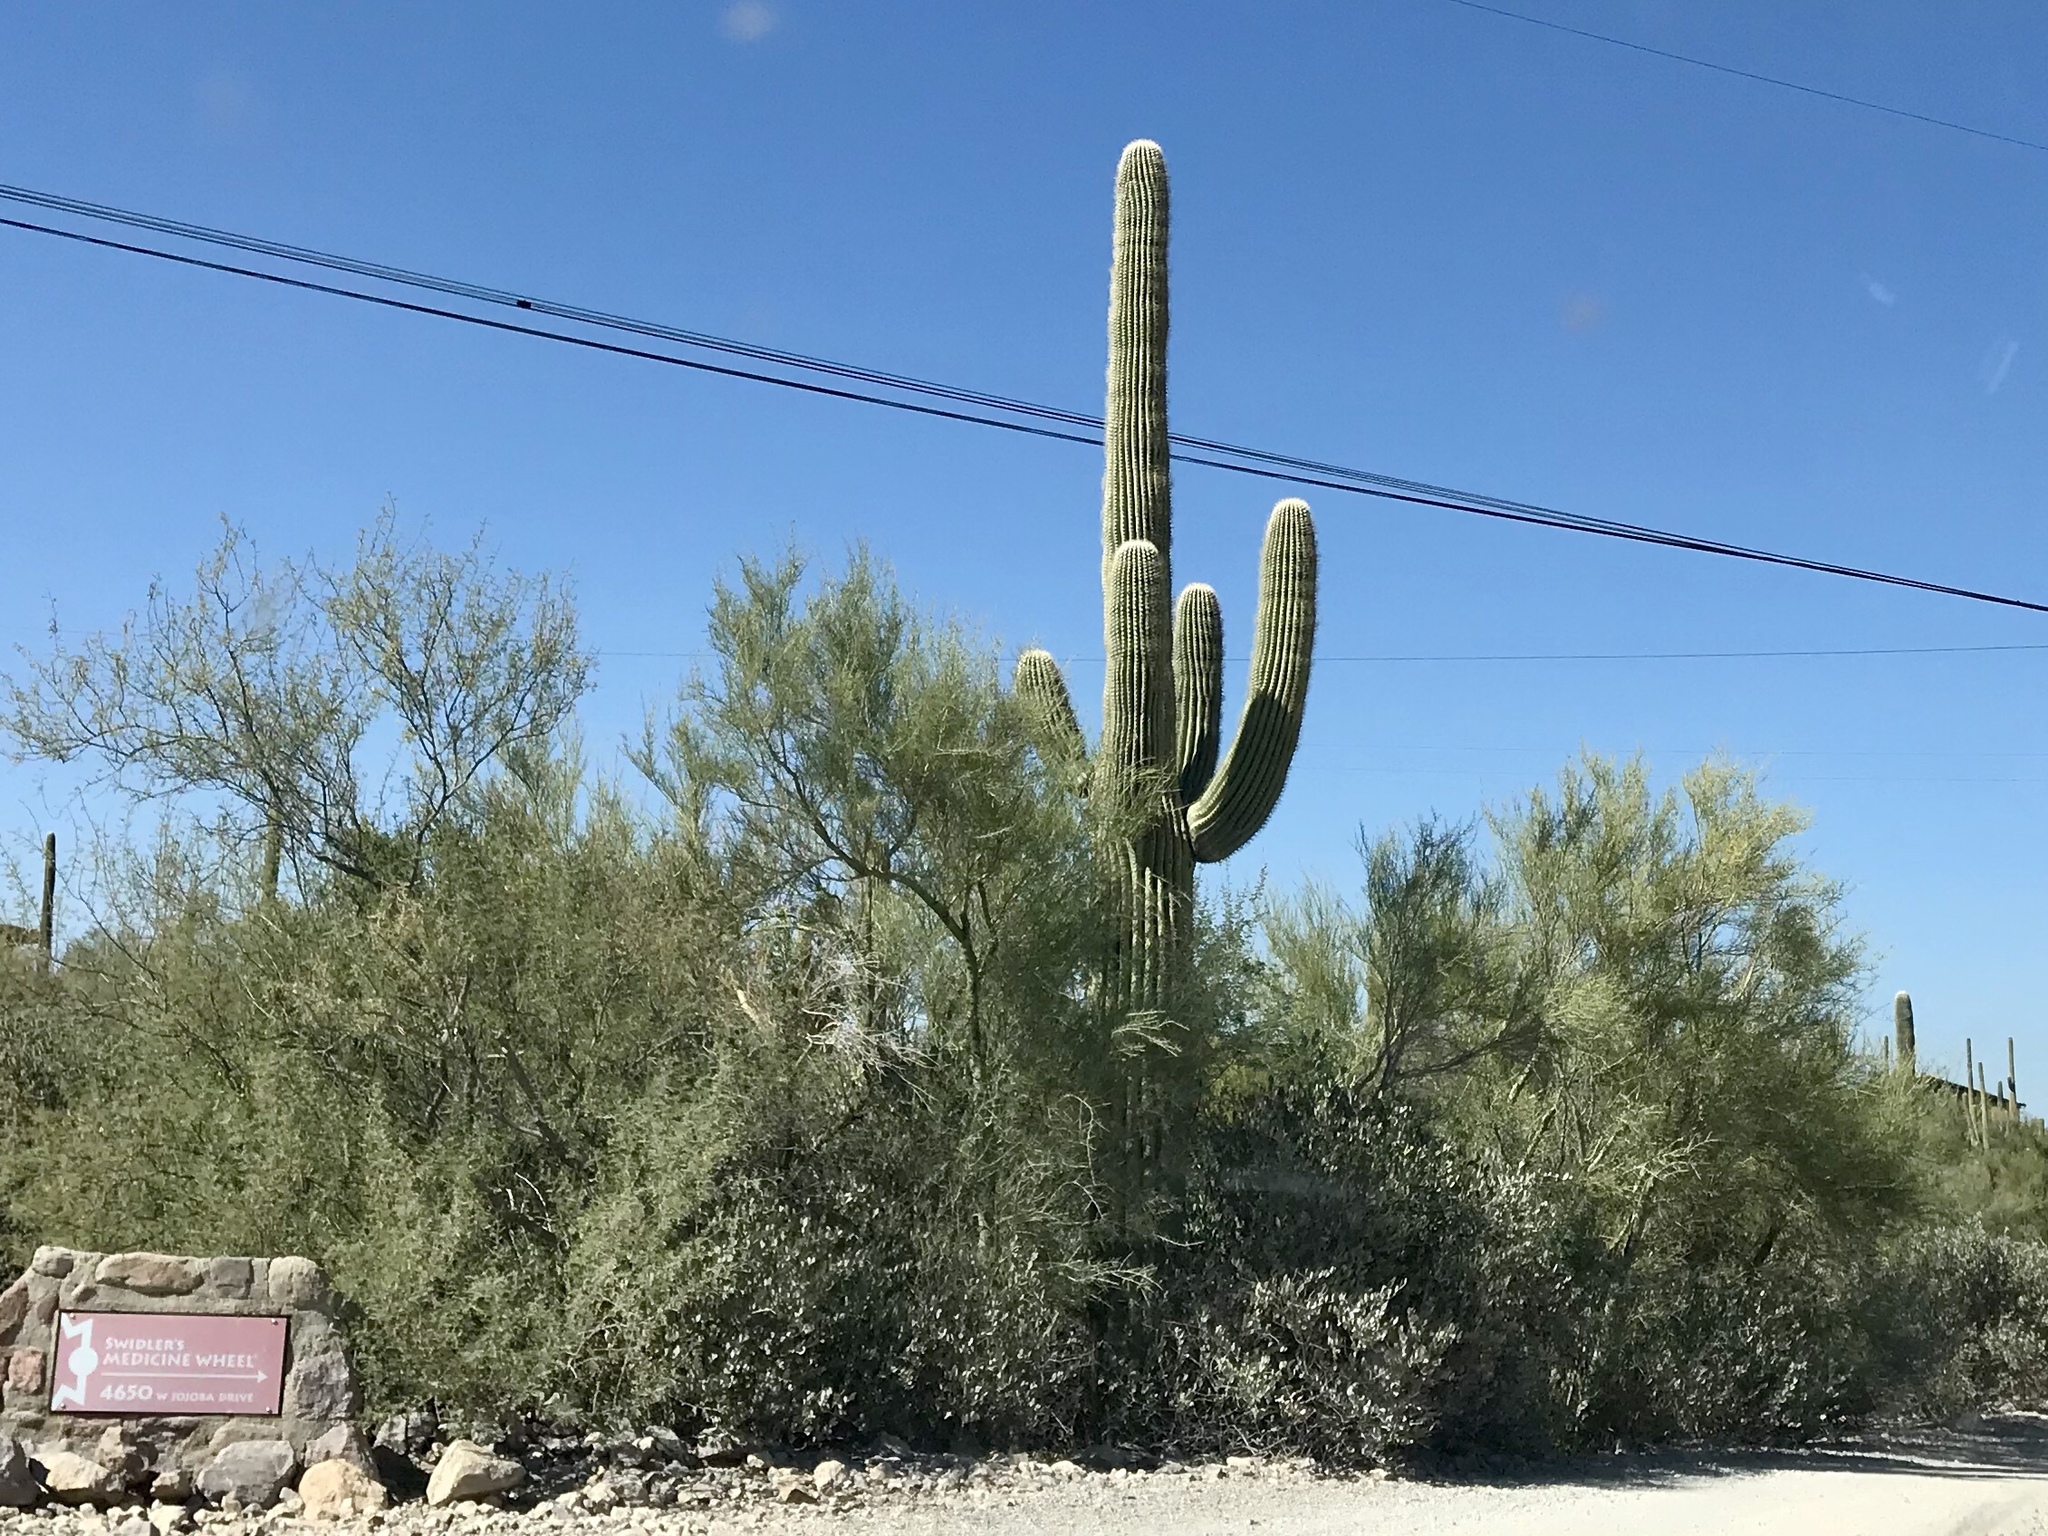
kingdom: Plantae
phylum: Tracheophyta
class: Magnoliopsida
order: Caryophyllales
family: Cactaceae
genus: Carnegiea
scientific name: Carnegiea gigantea
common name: Saguaro
